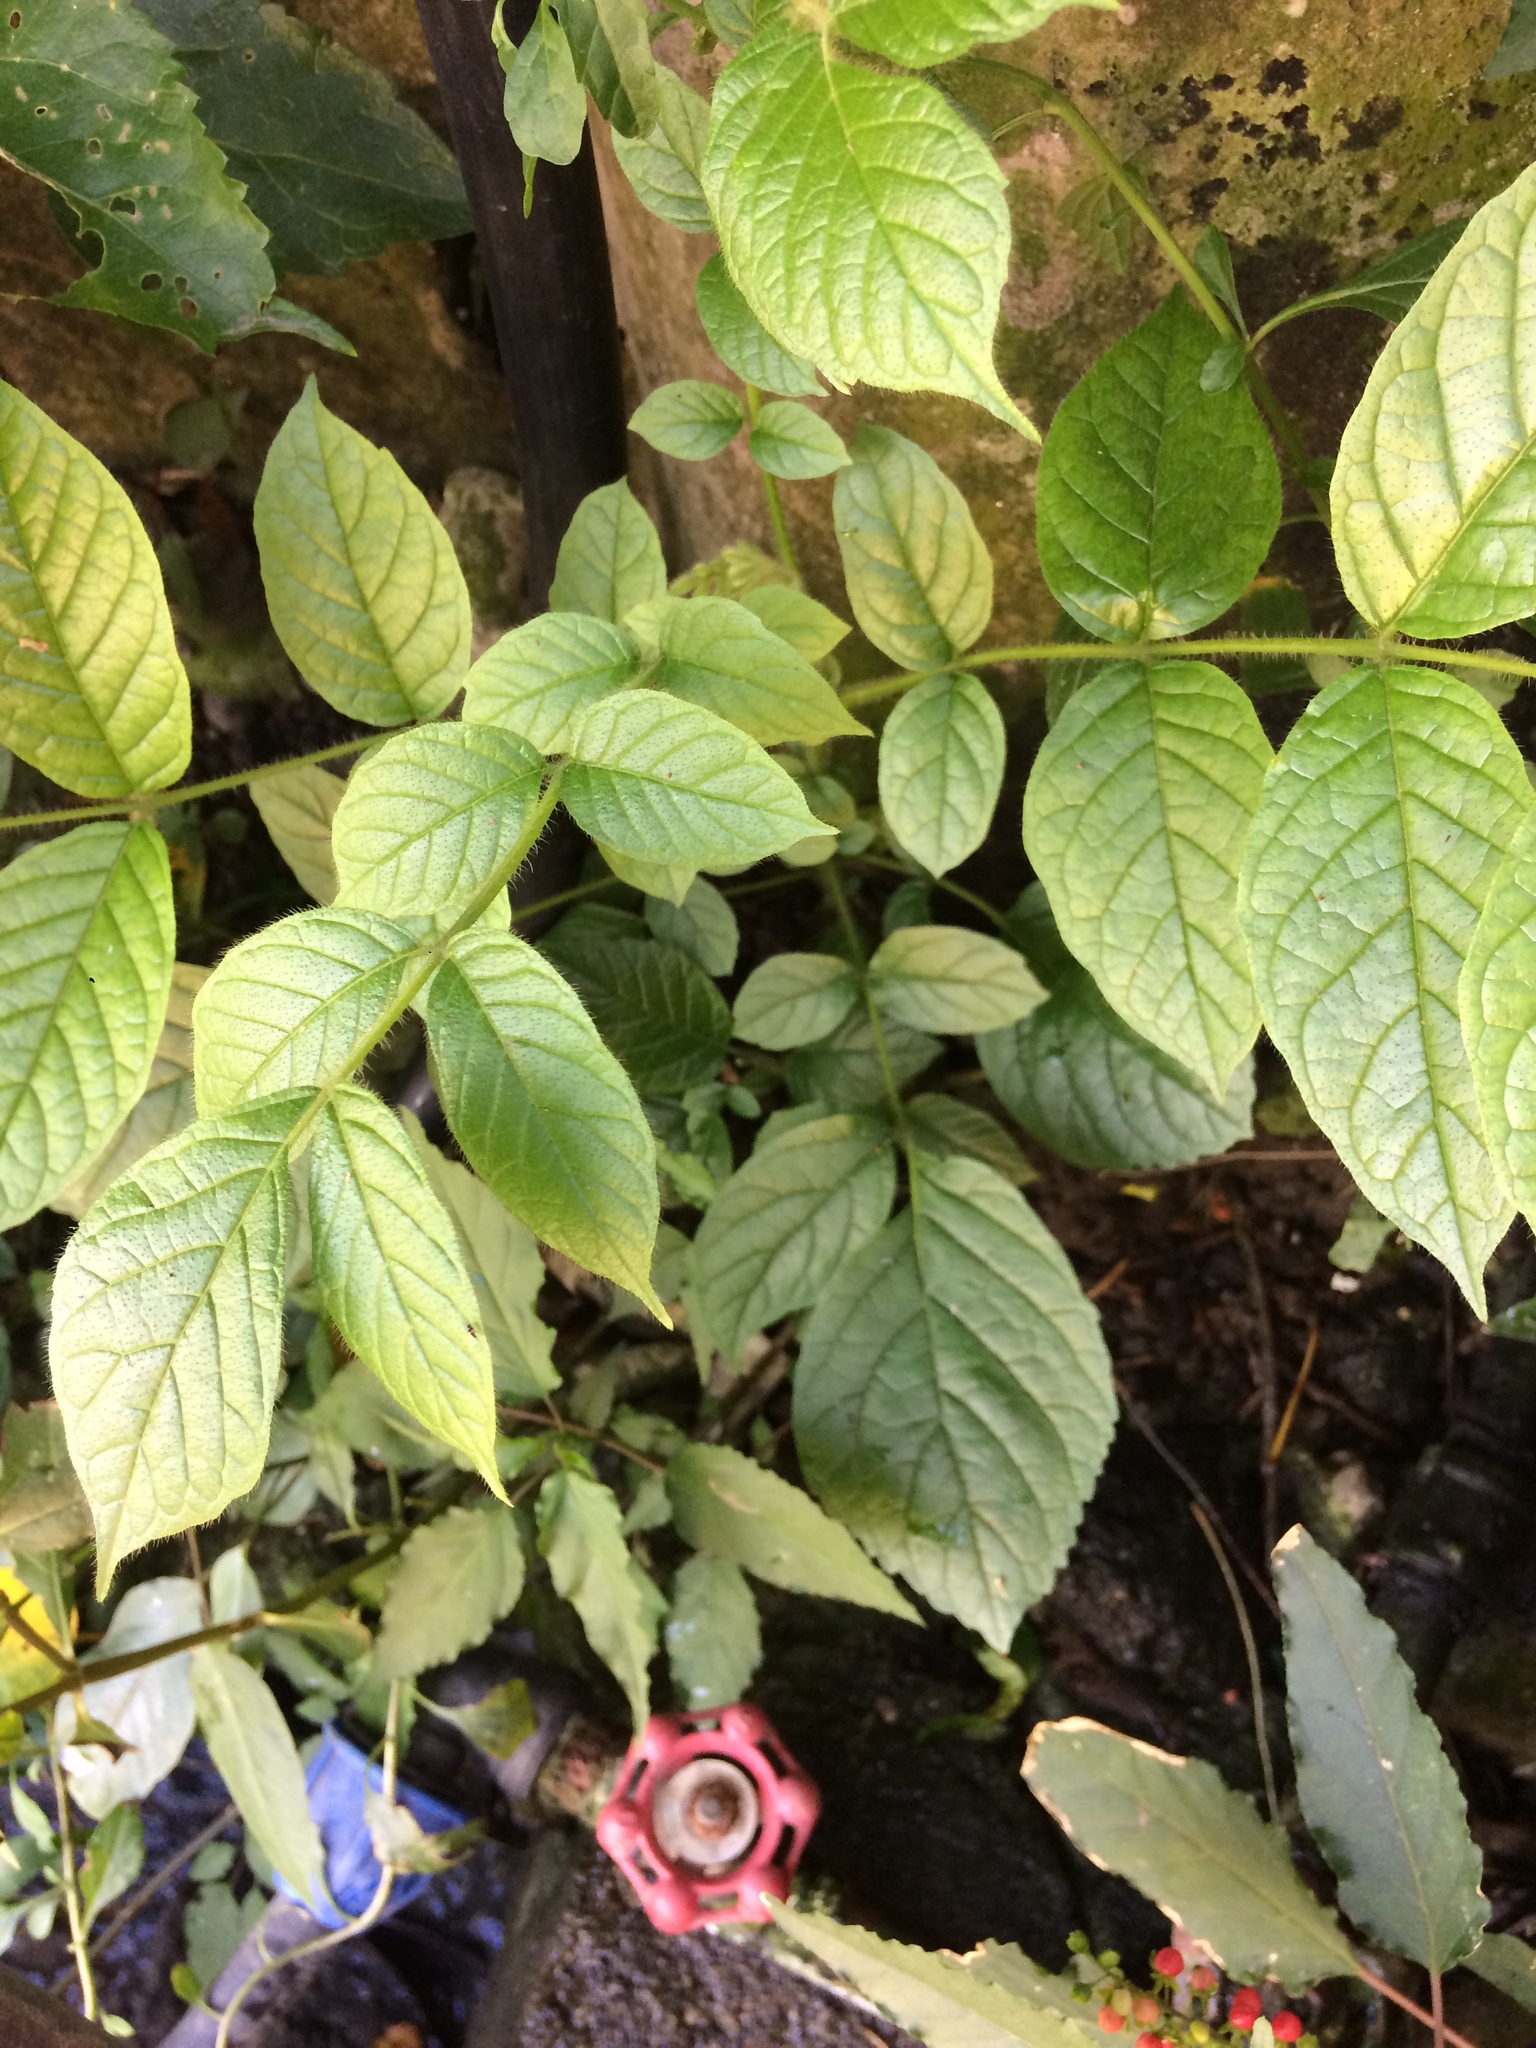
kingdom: Plantae
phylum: Tracheophyta
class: Magnoliopsida
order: Lamiales
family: Bignoniaceae
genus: Spathodea
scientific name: Spathodea campanulata
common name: African tuliptree
